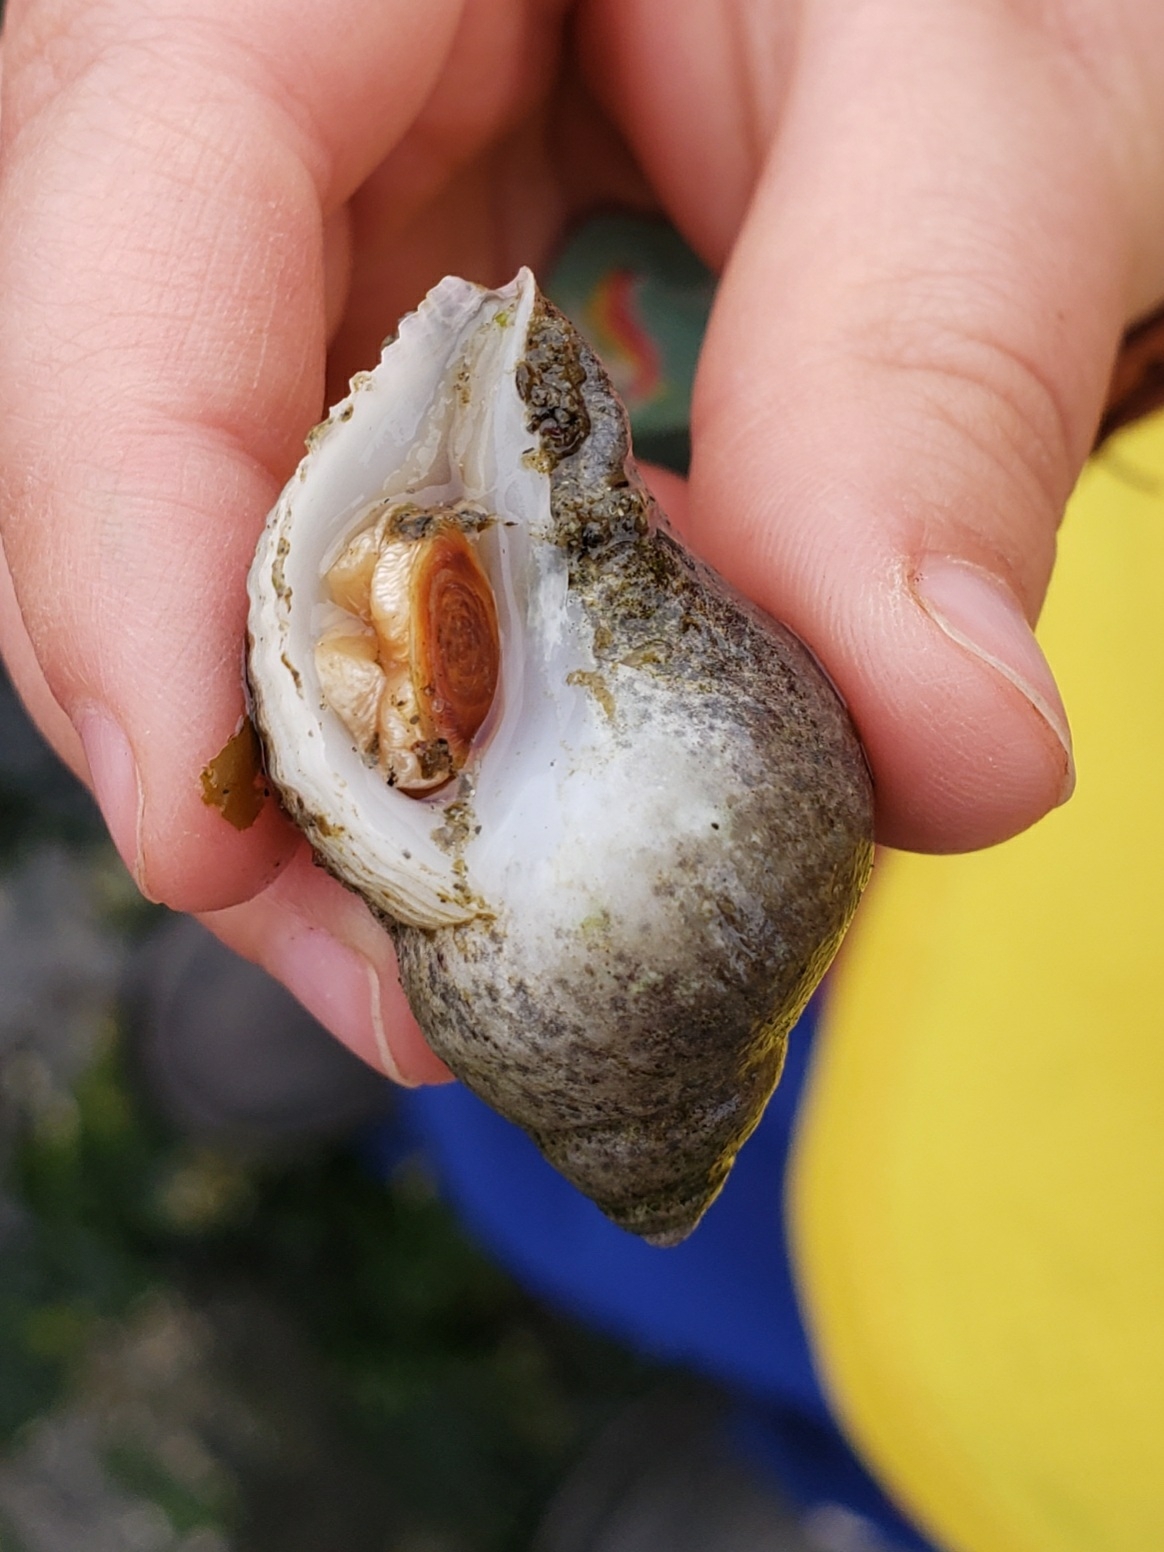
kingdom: Animalia
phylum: Mollusca
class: Gastropoda
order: Neogastropoda
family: Muricidae
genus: Nucella
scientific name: Nucella lamellosa
